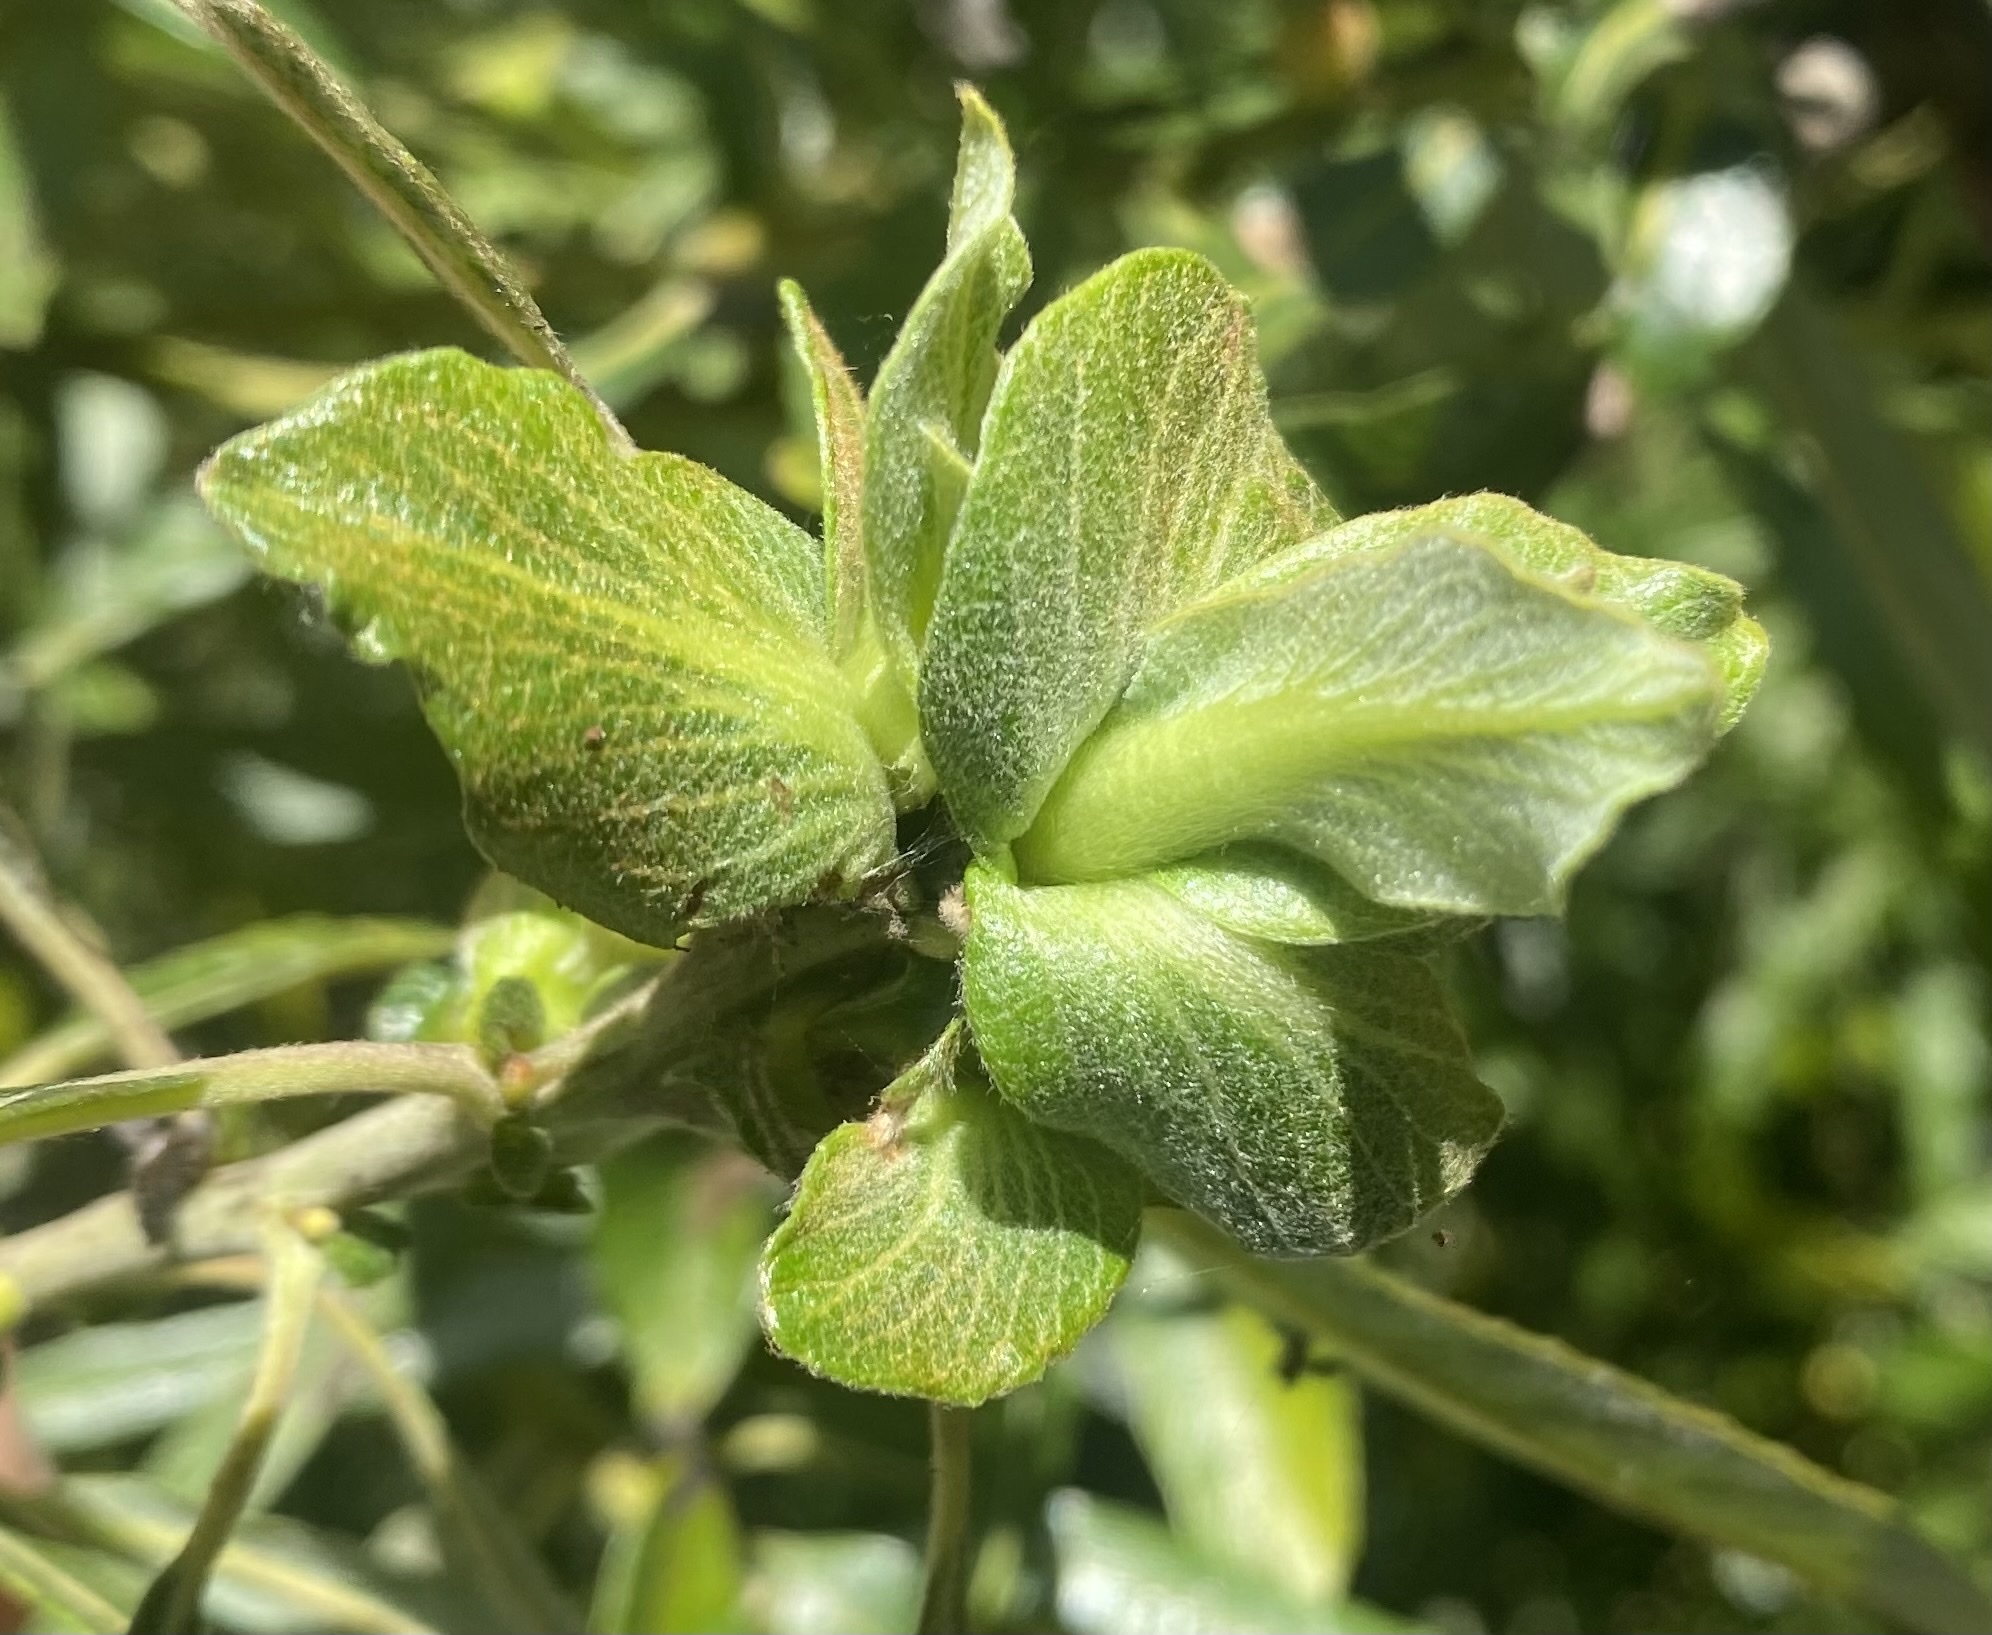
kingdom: Animalia
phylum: Arthropoda
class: Insecta
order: Diptera
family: Cecidomyiidae
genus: Rabdophaga
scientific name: Rabdophaga salicisbrassicoides
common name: Willow cabbagegall midge
